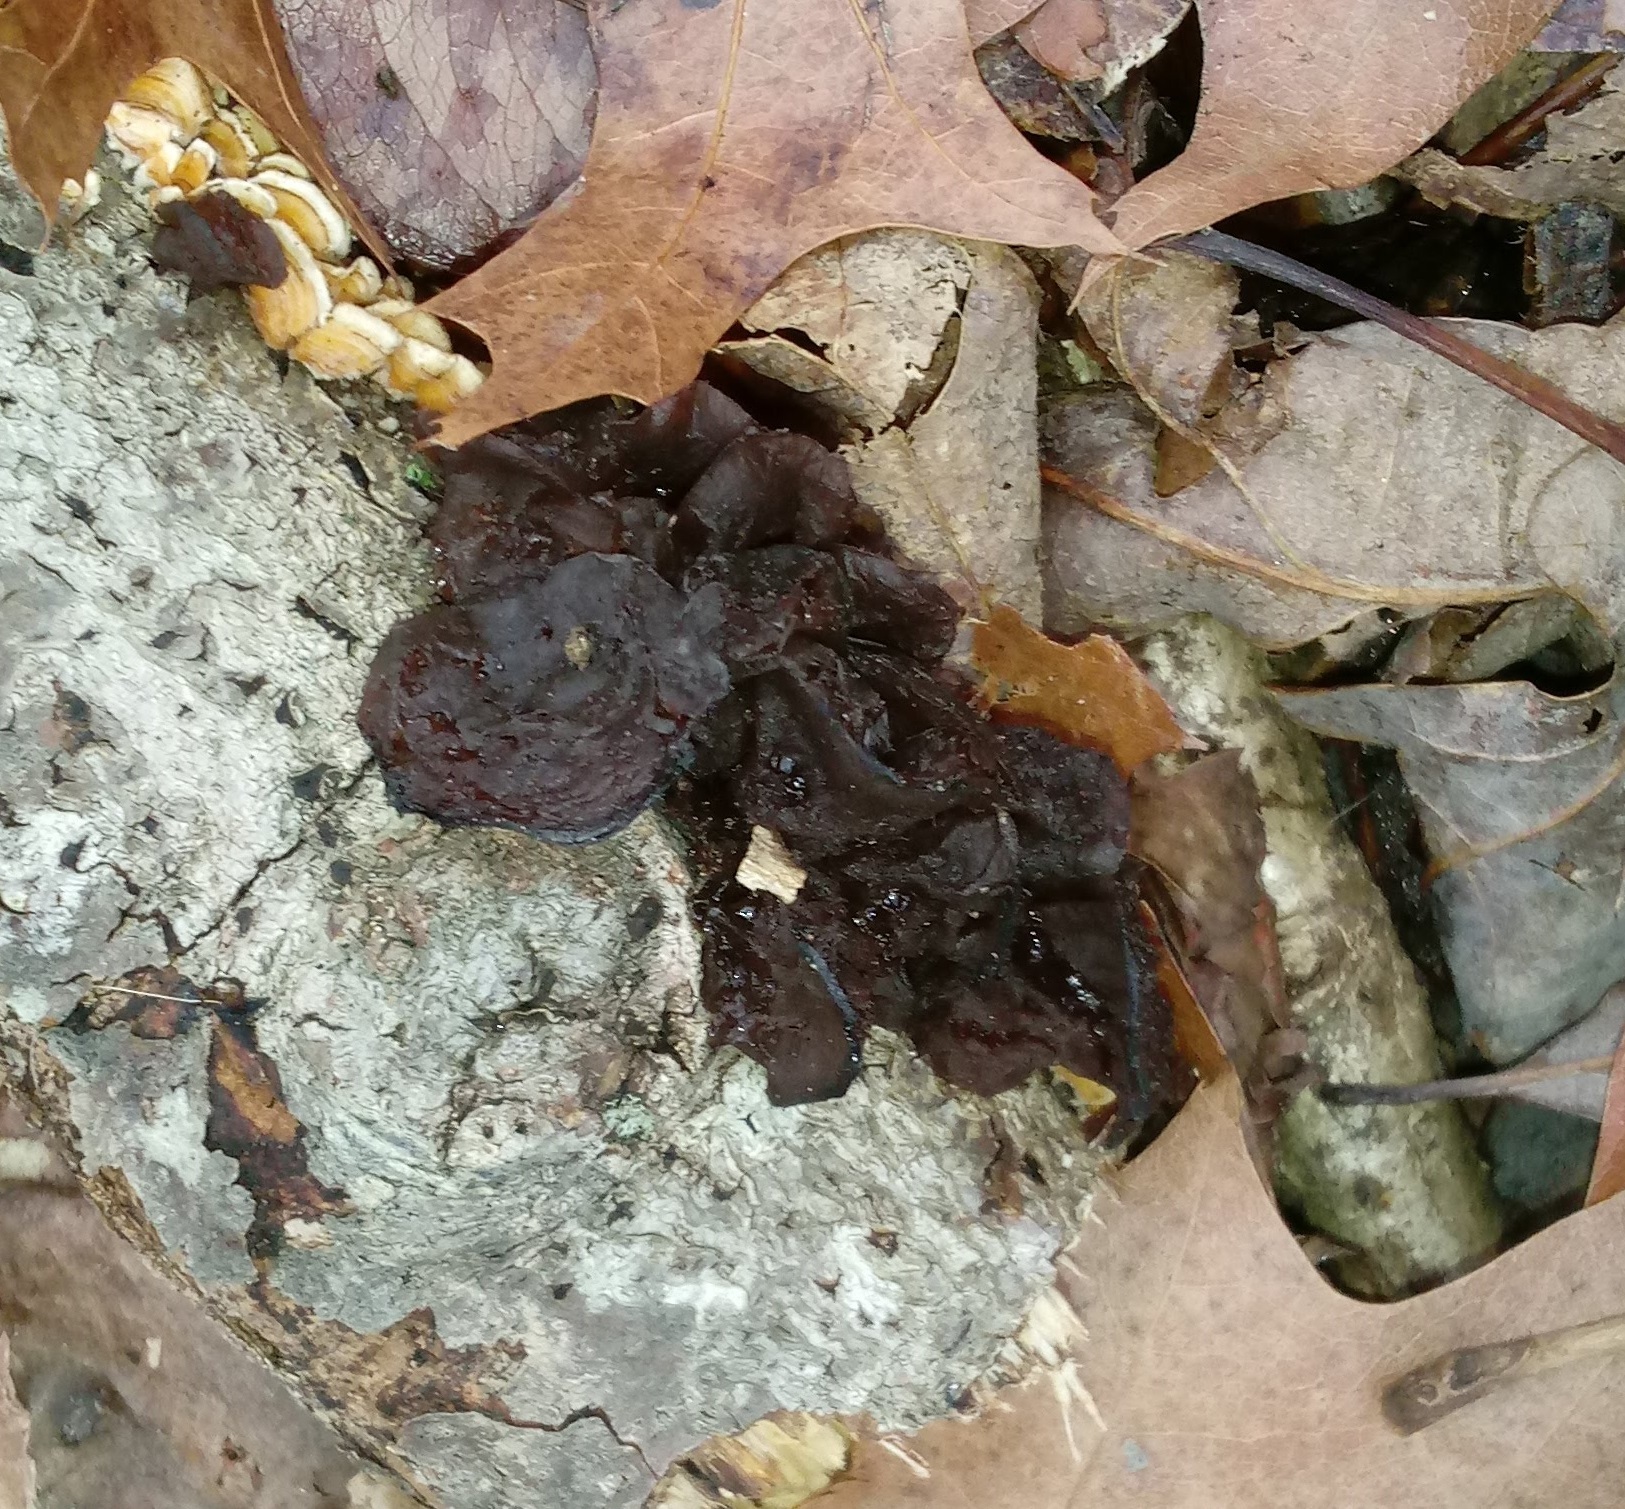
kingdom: Fungi
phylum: Basidiomycota
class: Agaricomycetes
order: Auriculariales
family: Auriculariaceae
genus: Exidia
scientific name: Exidia
